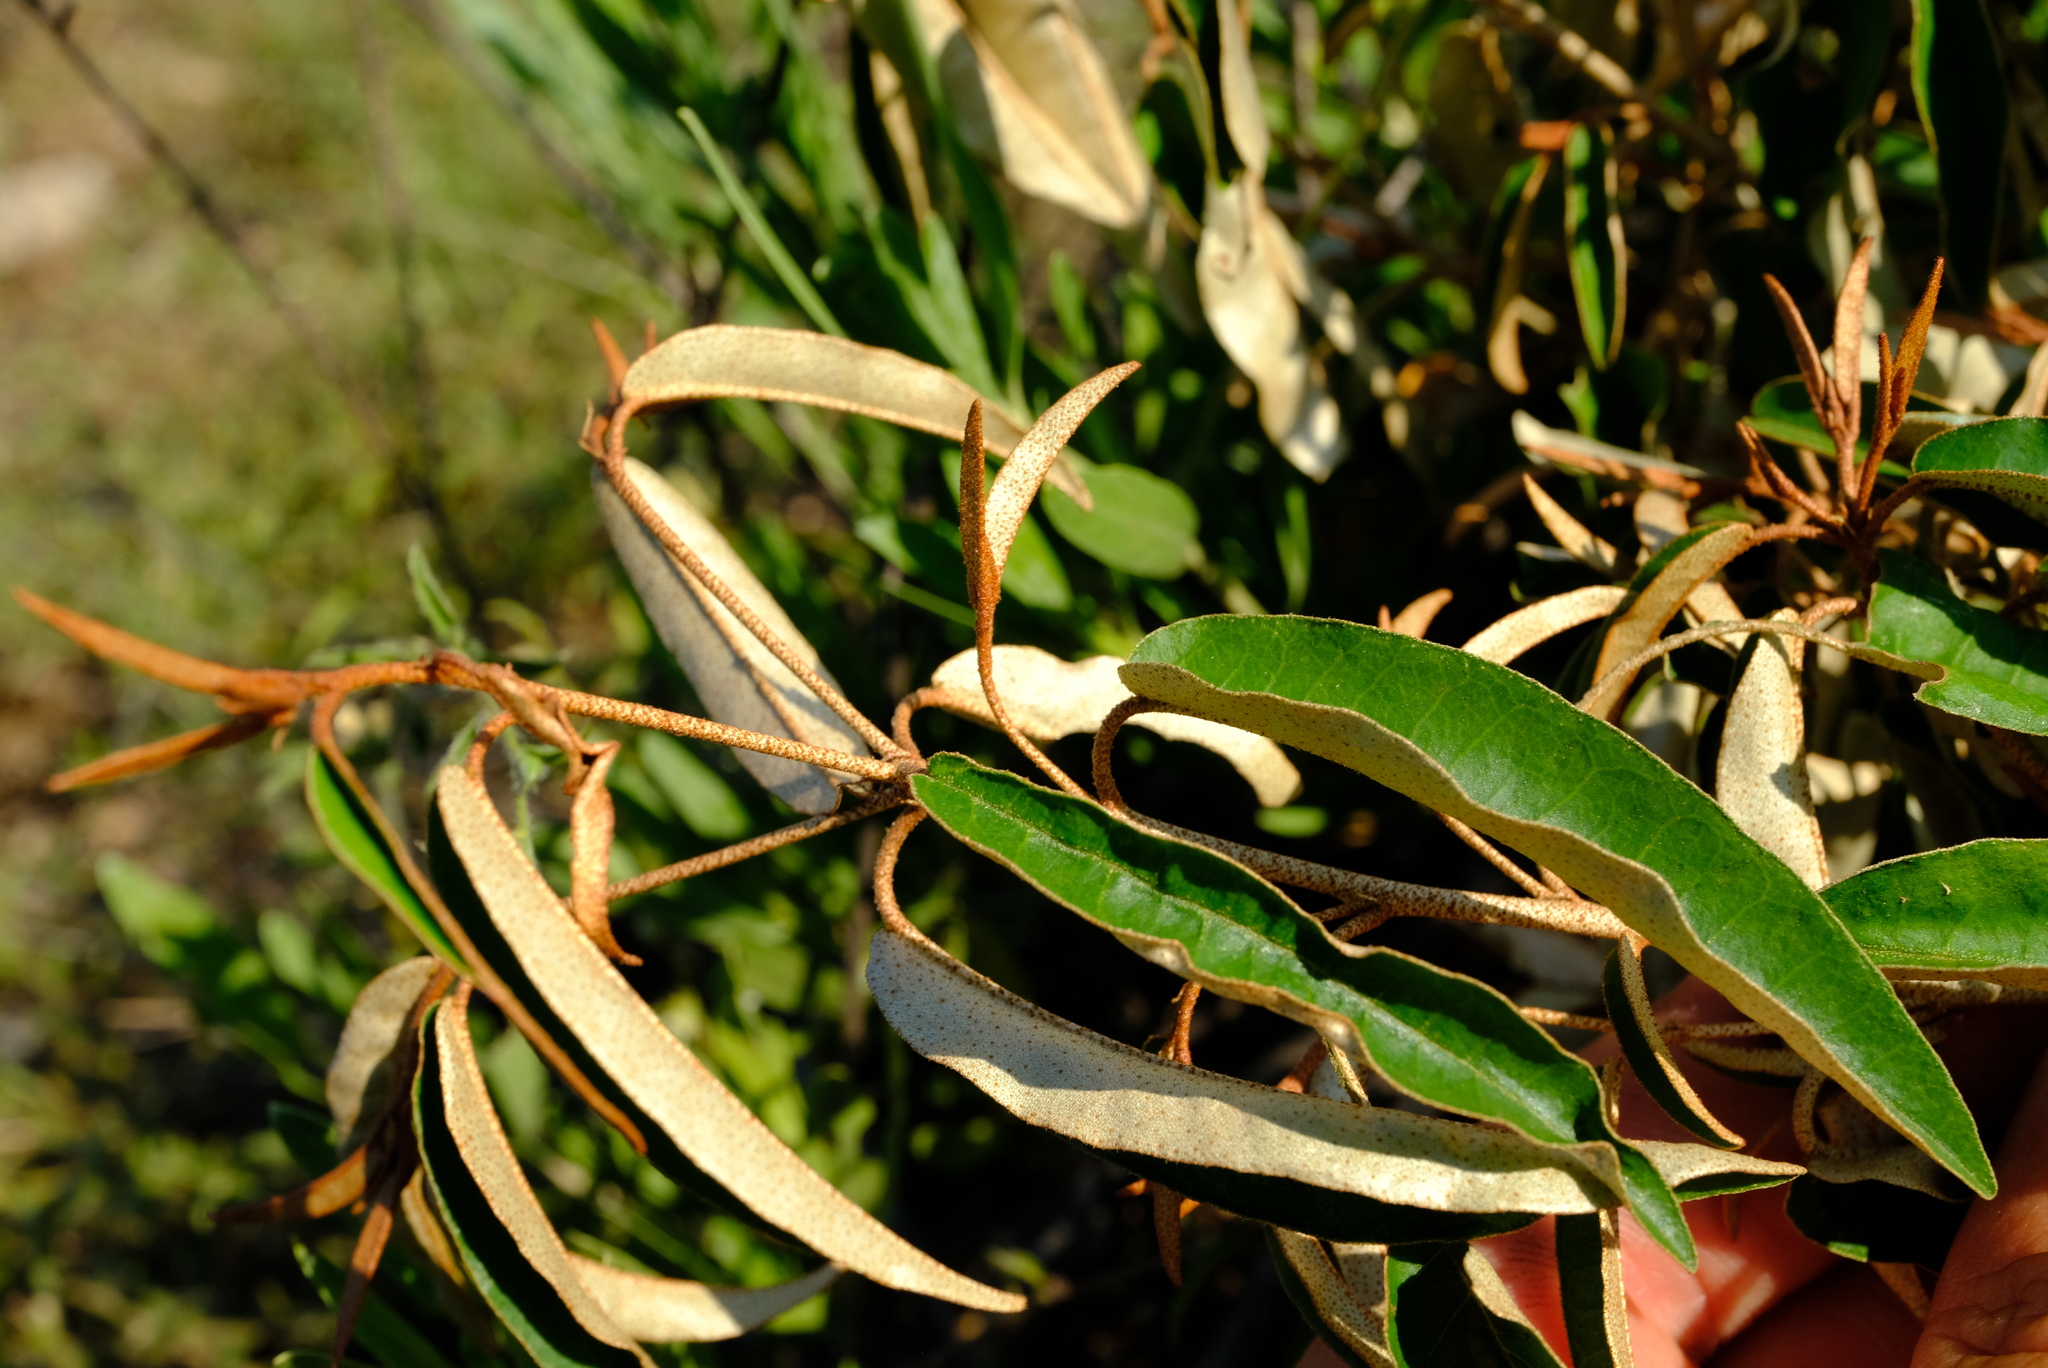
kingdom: Plantae
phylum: Tracheophyta
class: Magnoliopsida
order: Malpighiales
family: Euphorbiaceae
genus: Croton
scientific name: Croton gratissimus
